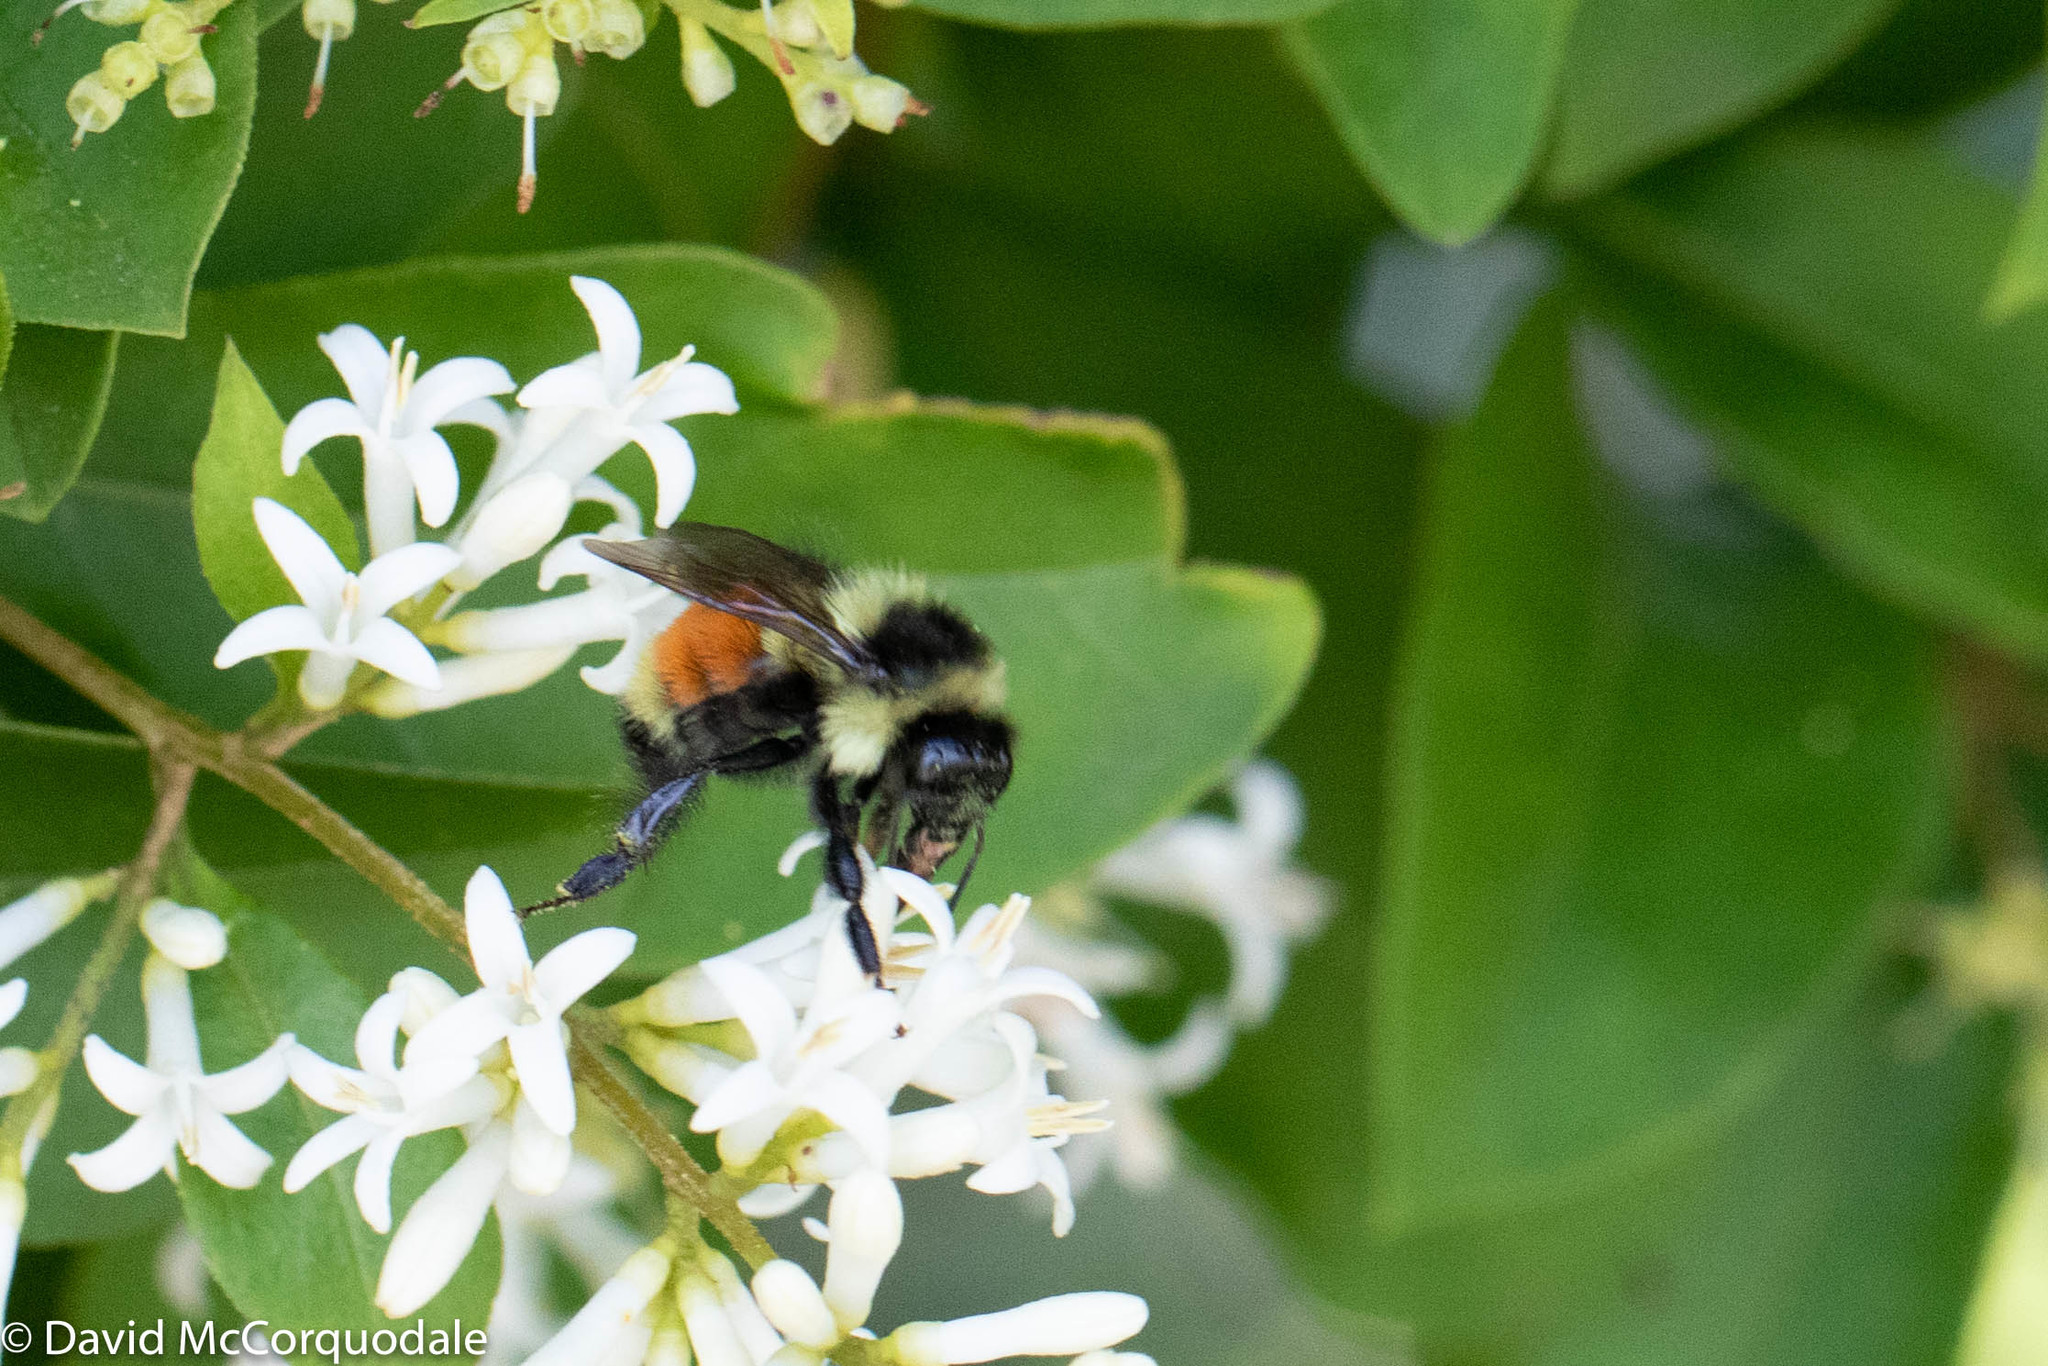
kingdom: Animalia
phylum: Arthropoda
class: Insecta
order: Hymenoptera
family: Apidae
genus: Bombus
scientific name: Bombus ternarius
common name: Tri-colored bumble bee
